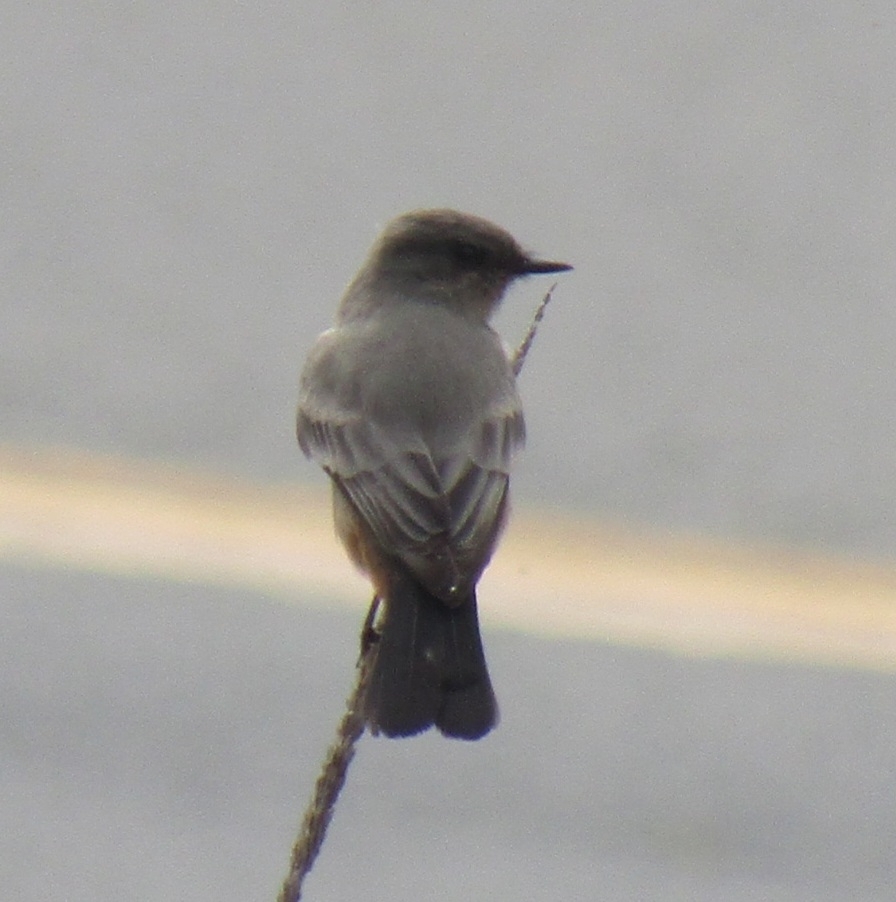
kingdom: Animalia
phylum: Chordata
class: Aves
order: Passeriformes
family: Tyrannidae
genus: Sayornis
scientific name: Sayornis saya
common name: Say's phoebe
